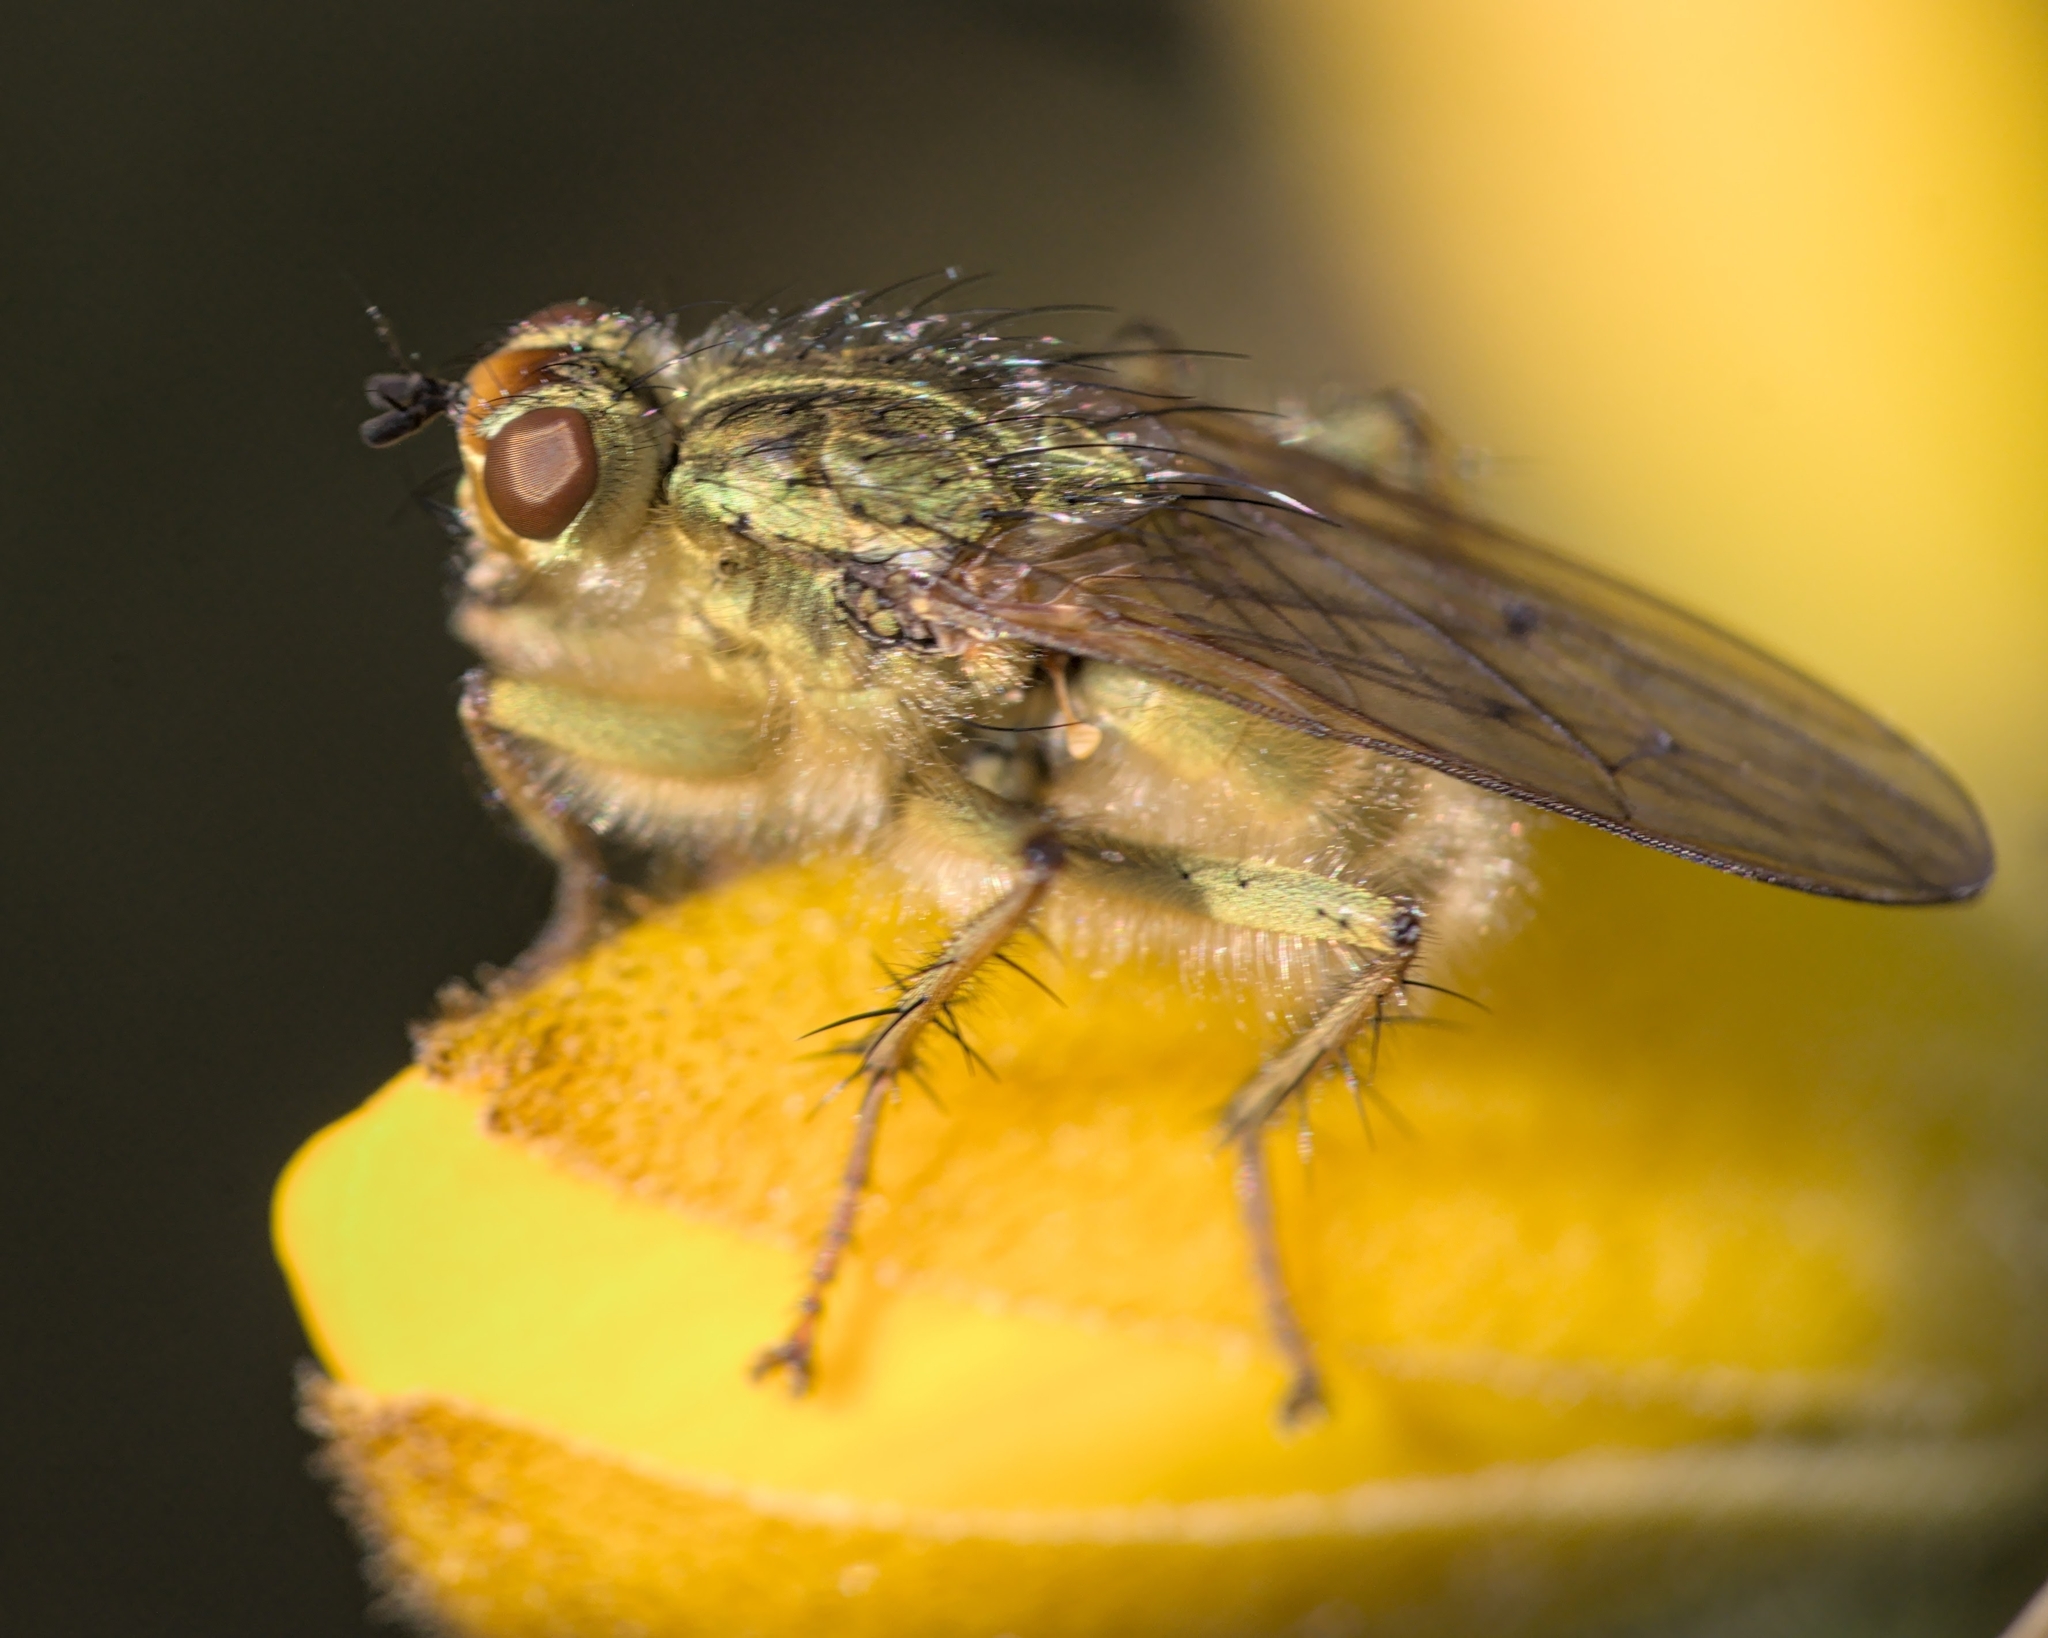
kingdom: Animalia
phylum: Arthropoda
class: Insecta
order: Diptera
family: Scathophagidae
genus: Scathophaga
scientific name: Scathophaga stercoraria
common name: Yellow dung fly
